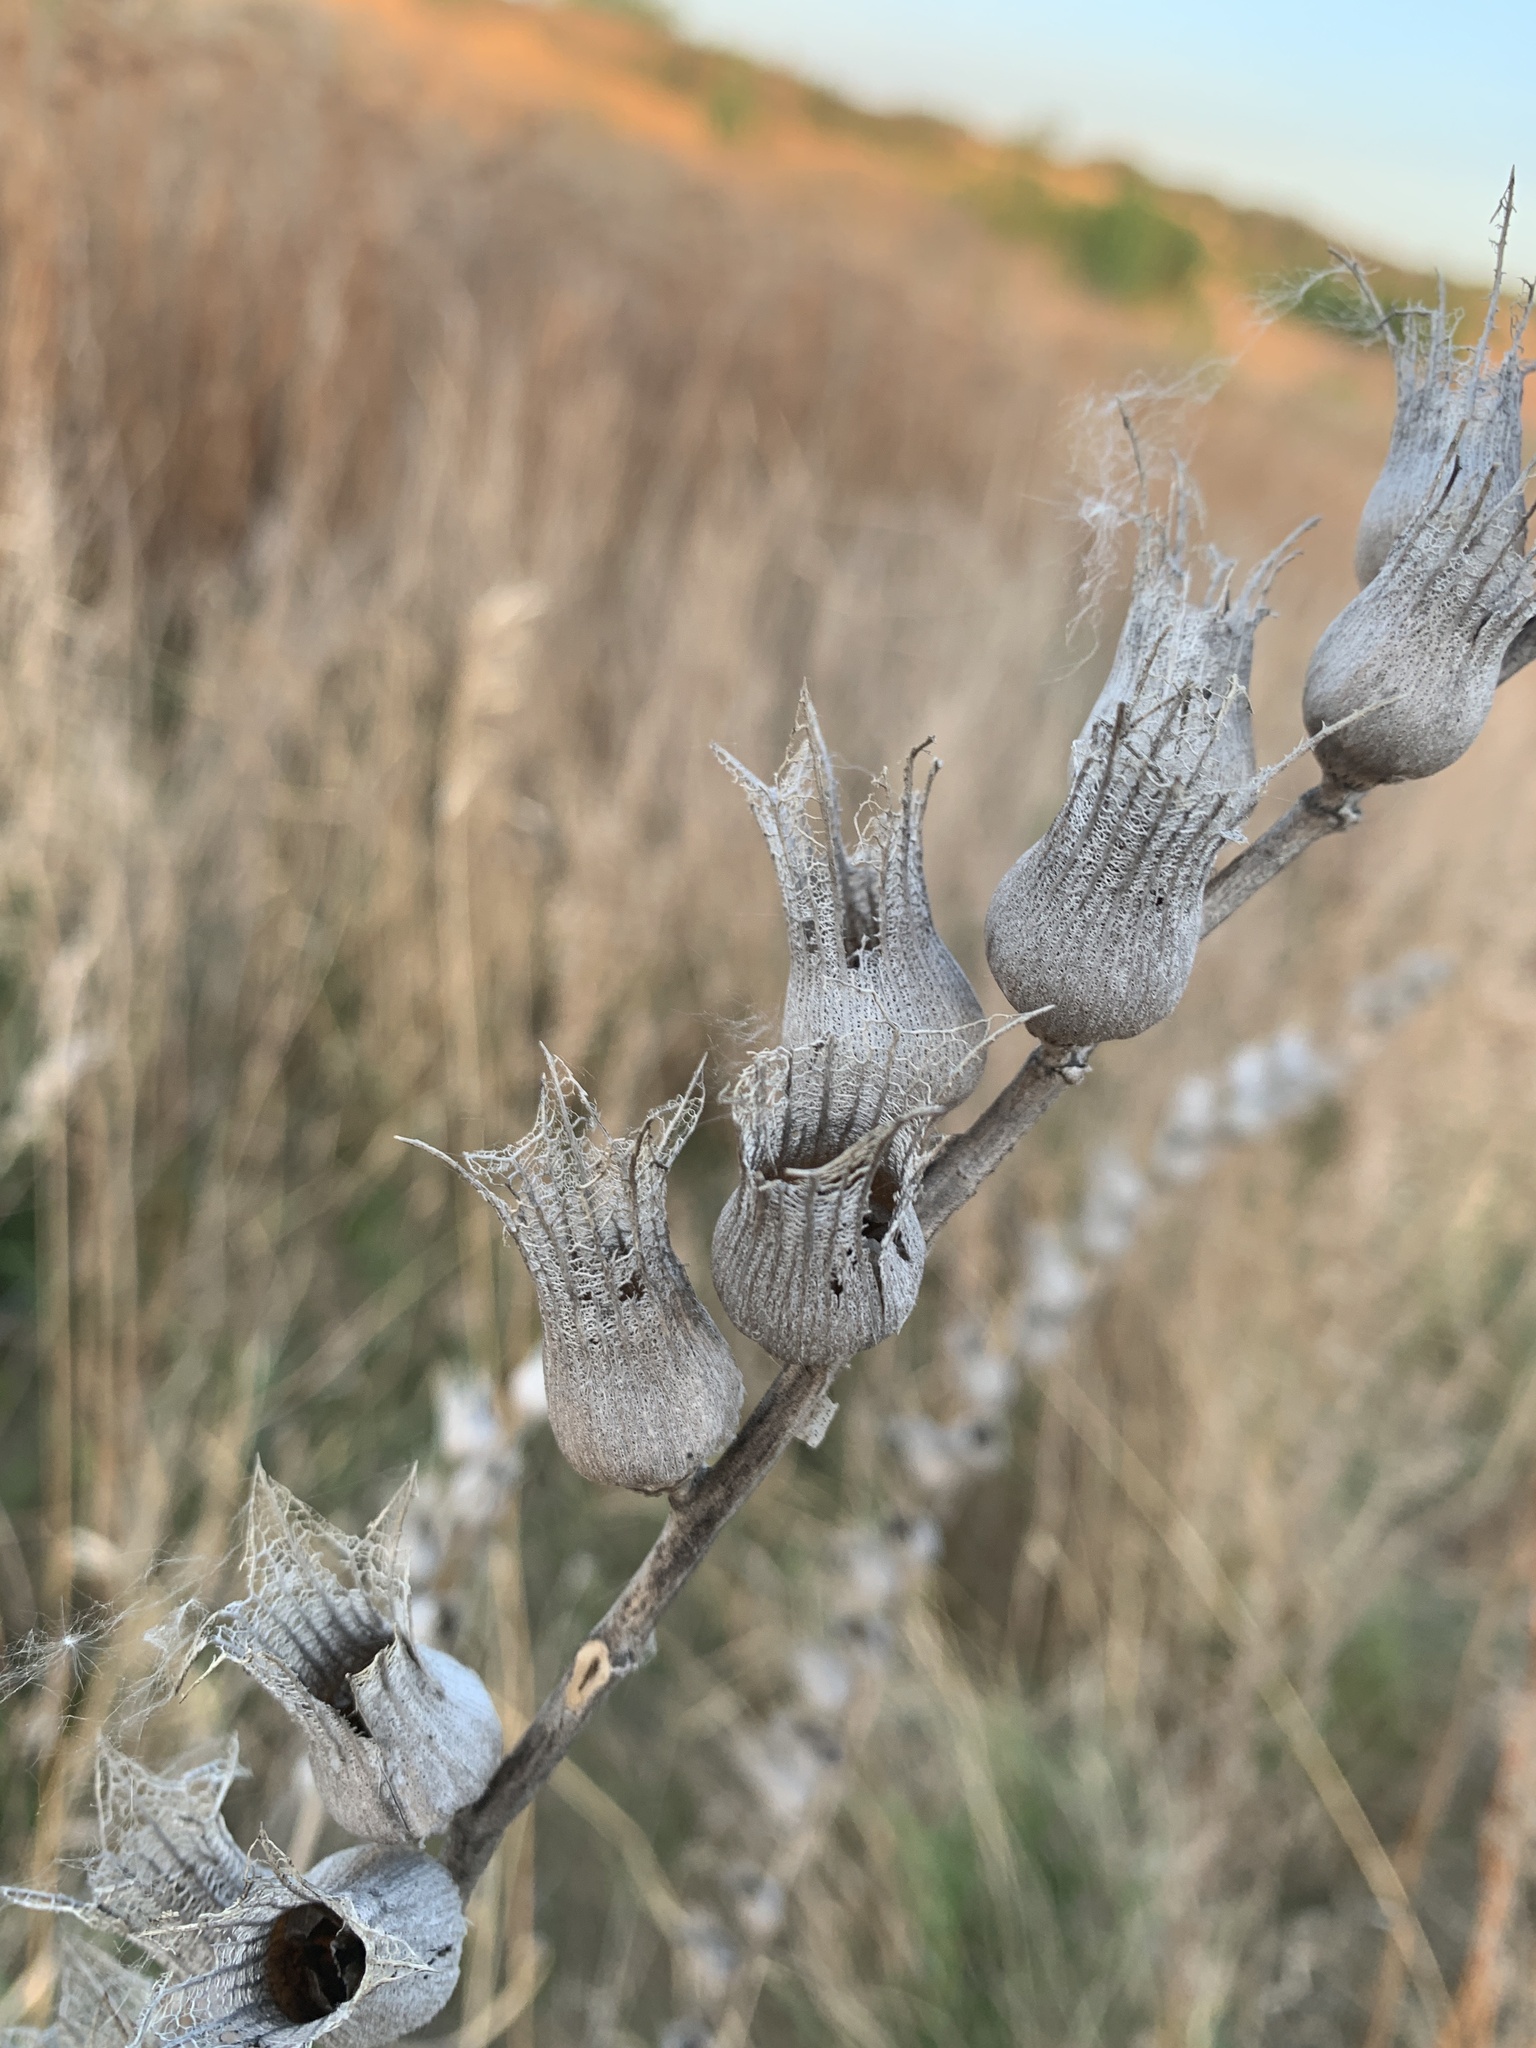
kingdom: Plantae
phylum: Tracheophyta
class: Magnoliopsida
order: Solanales
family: Solanaceae
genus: Hyoscyamus
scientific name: Hyoscyamus niger
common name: Henbane
